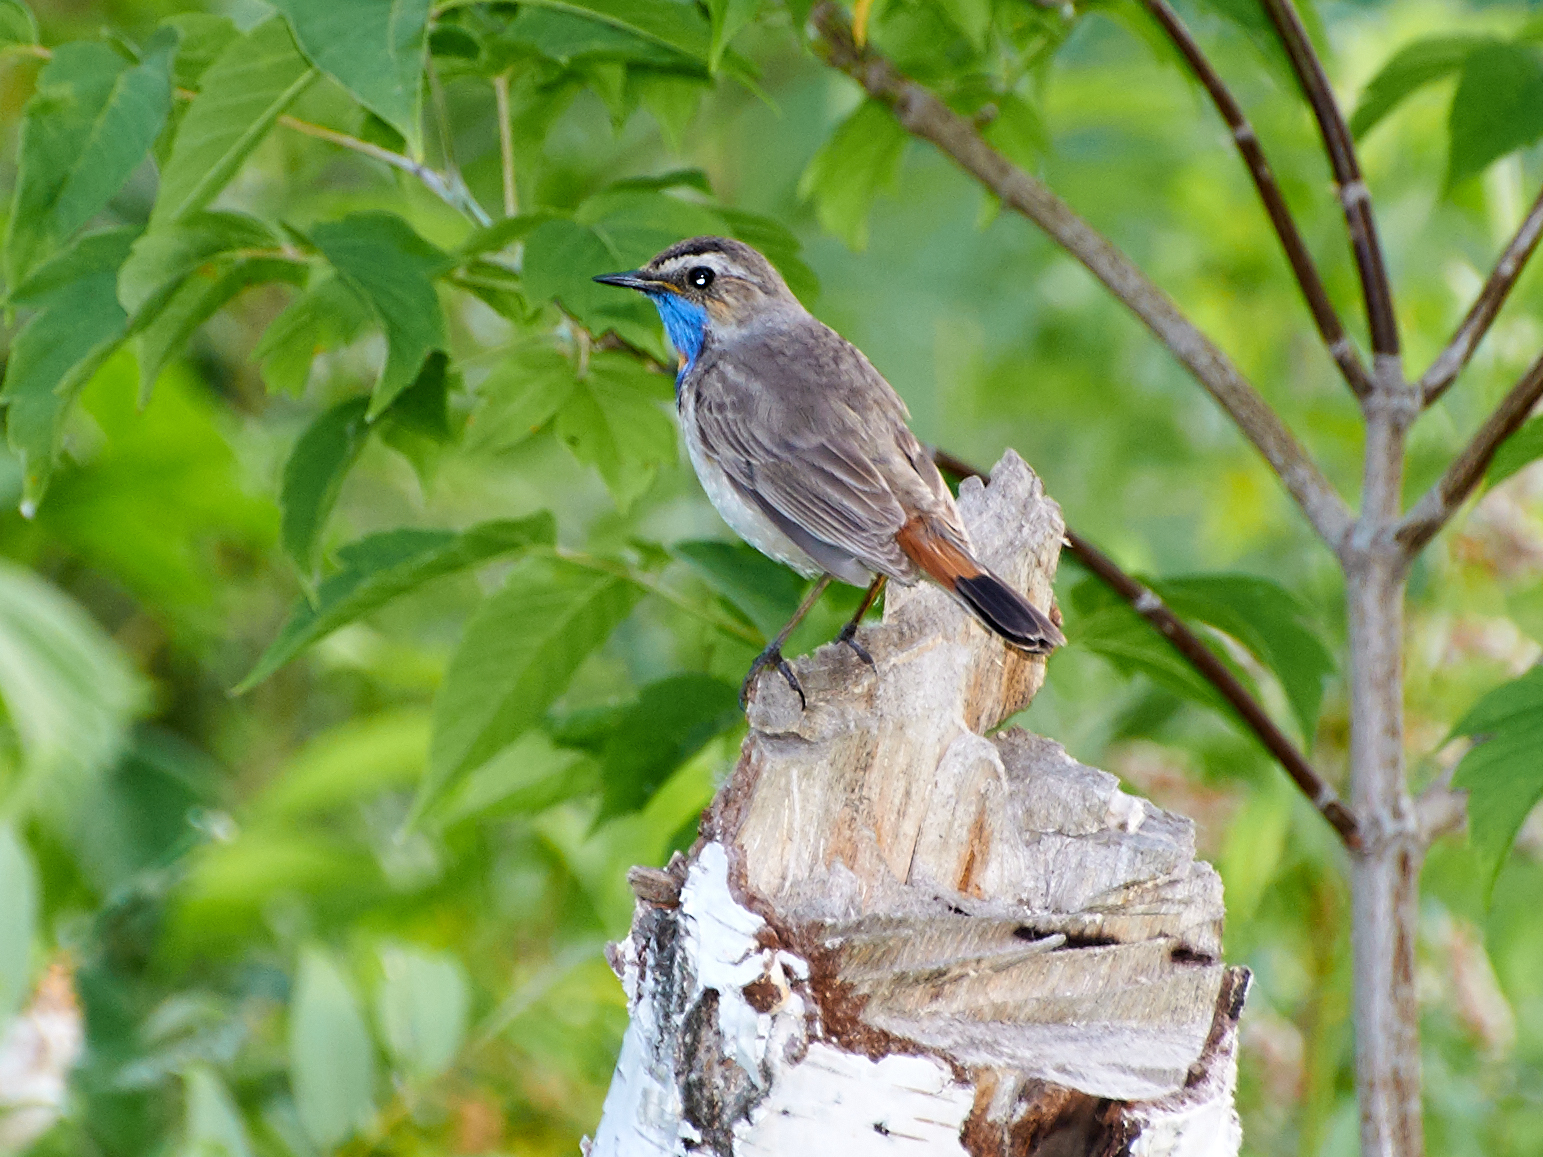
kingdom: Animalia
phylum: Chordata
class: Aves
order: Passeriformes
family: Muscicapidae
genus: Luscinia
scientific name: Luscinia svecica
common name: Bluethroat
